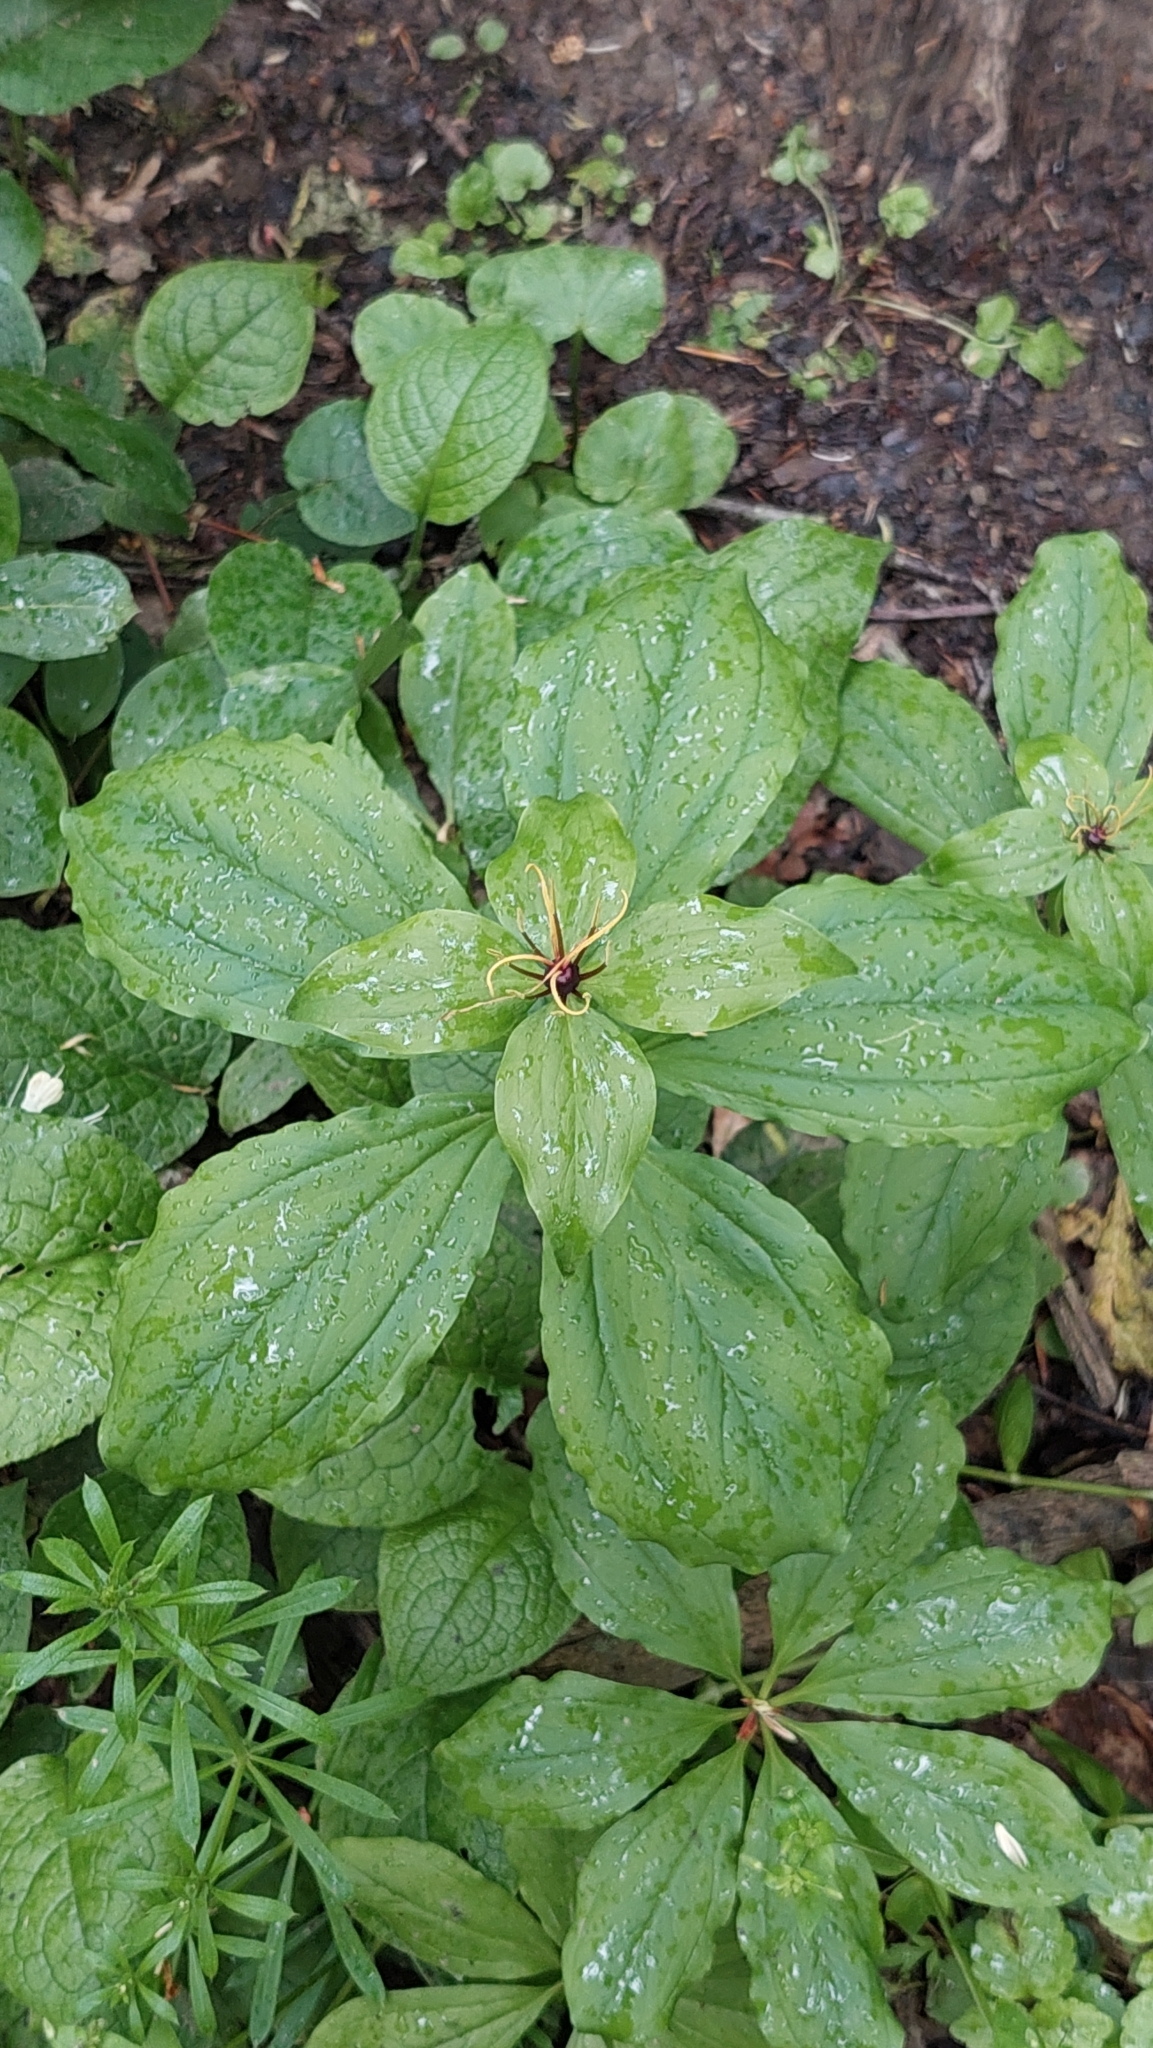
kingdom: Plantae
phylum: Tracheophyta
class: Liliopsida
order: Liliales
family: Melanthiaceae
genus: Paris
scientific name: Paris incompleta
